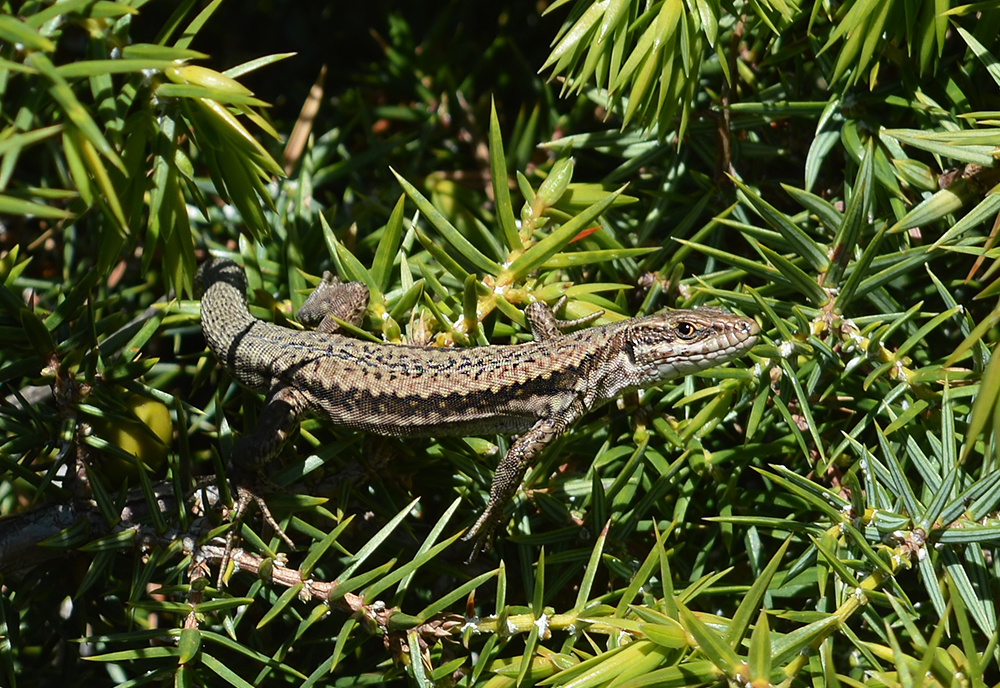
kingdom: Animalia
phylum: Chordata
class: Squamata
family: Lacertidae
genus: Podarcis
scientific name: Podarcis muralis
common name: Common wall lizard
